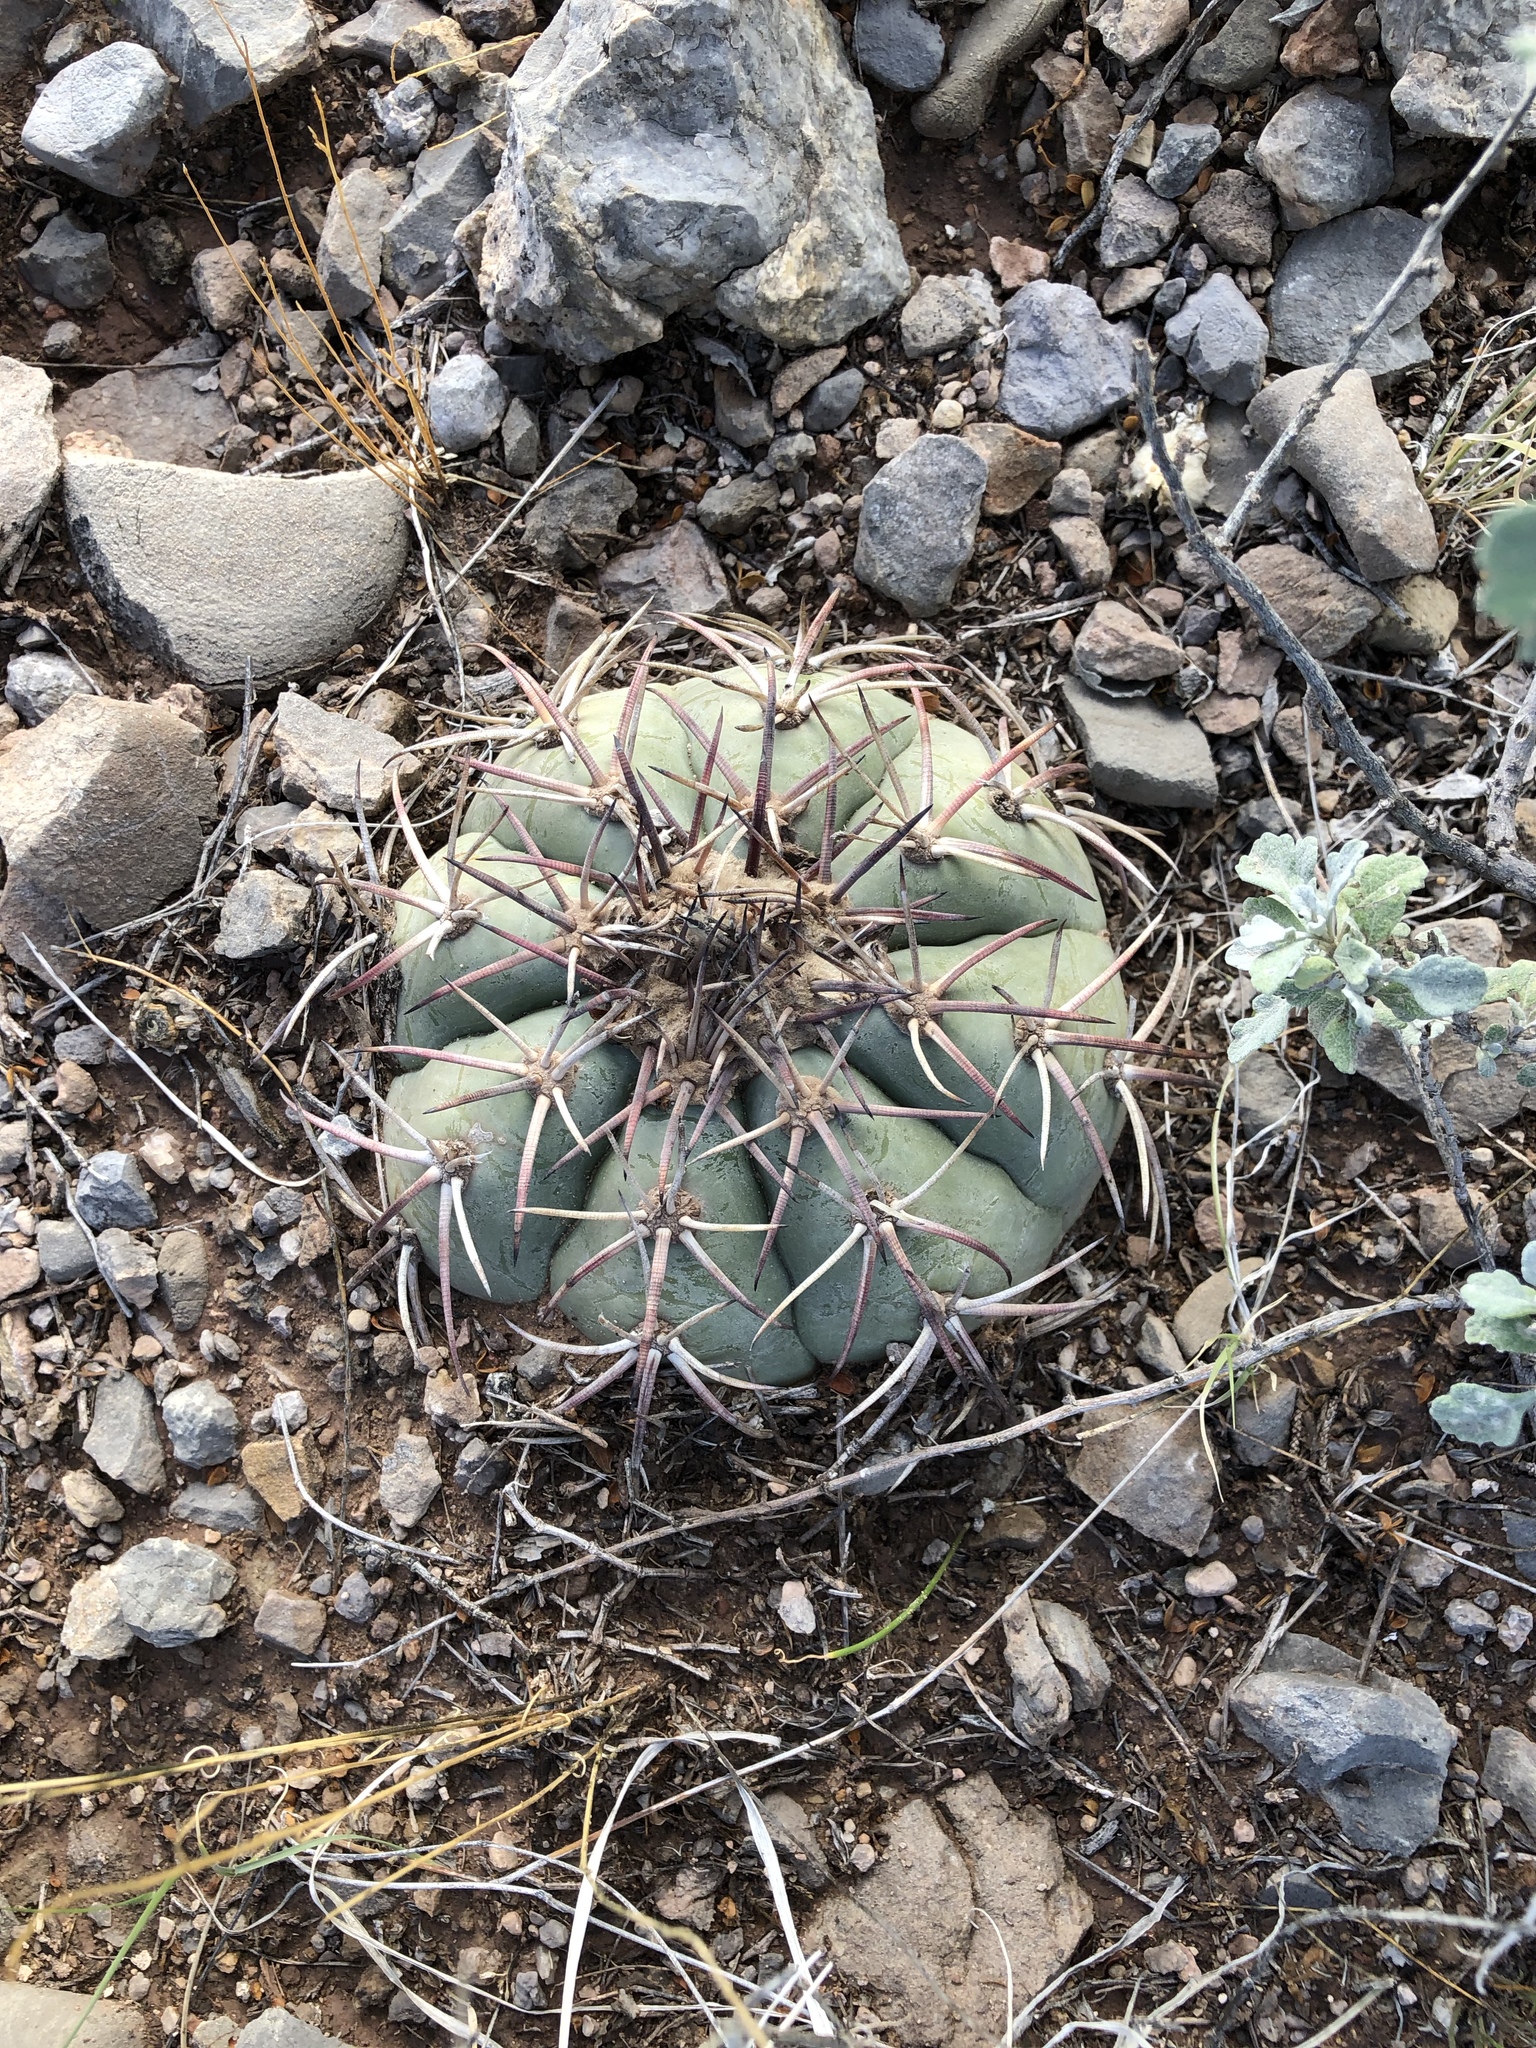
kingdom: Plantae
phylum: Tracheophyta
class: Magnoliopsida
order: Caryophyllales
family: Cactaceae
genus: Echinocactus
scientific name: Echinocactus horizonthalonius
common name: Devilshead
